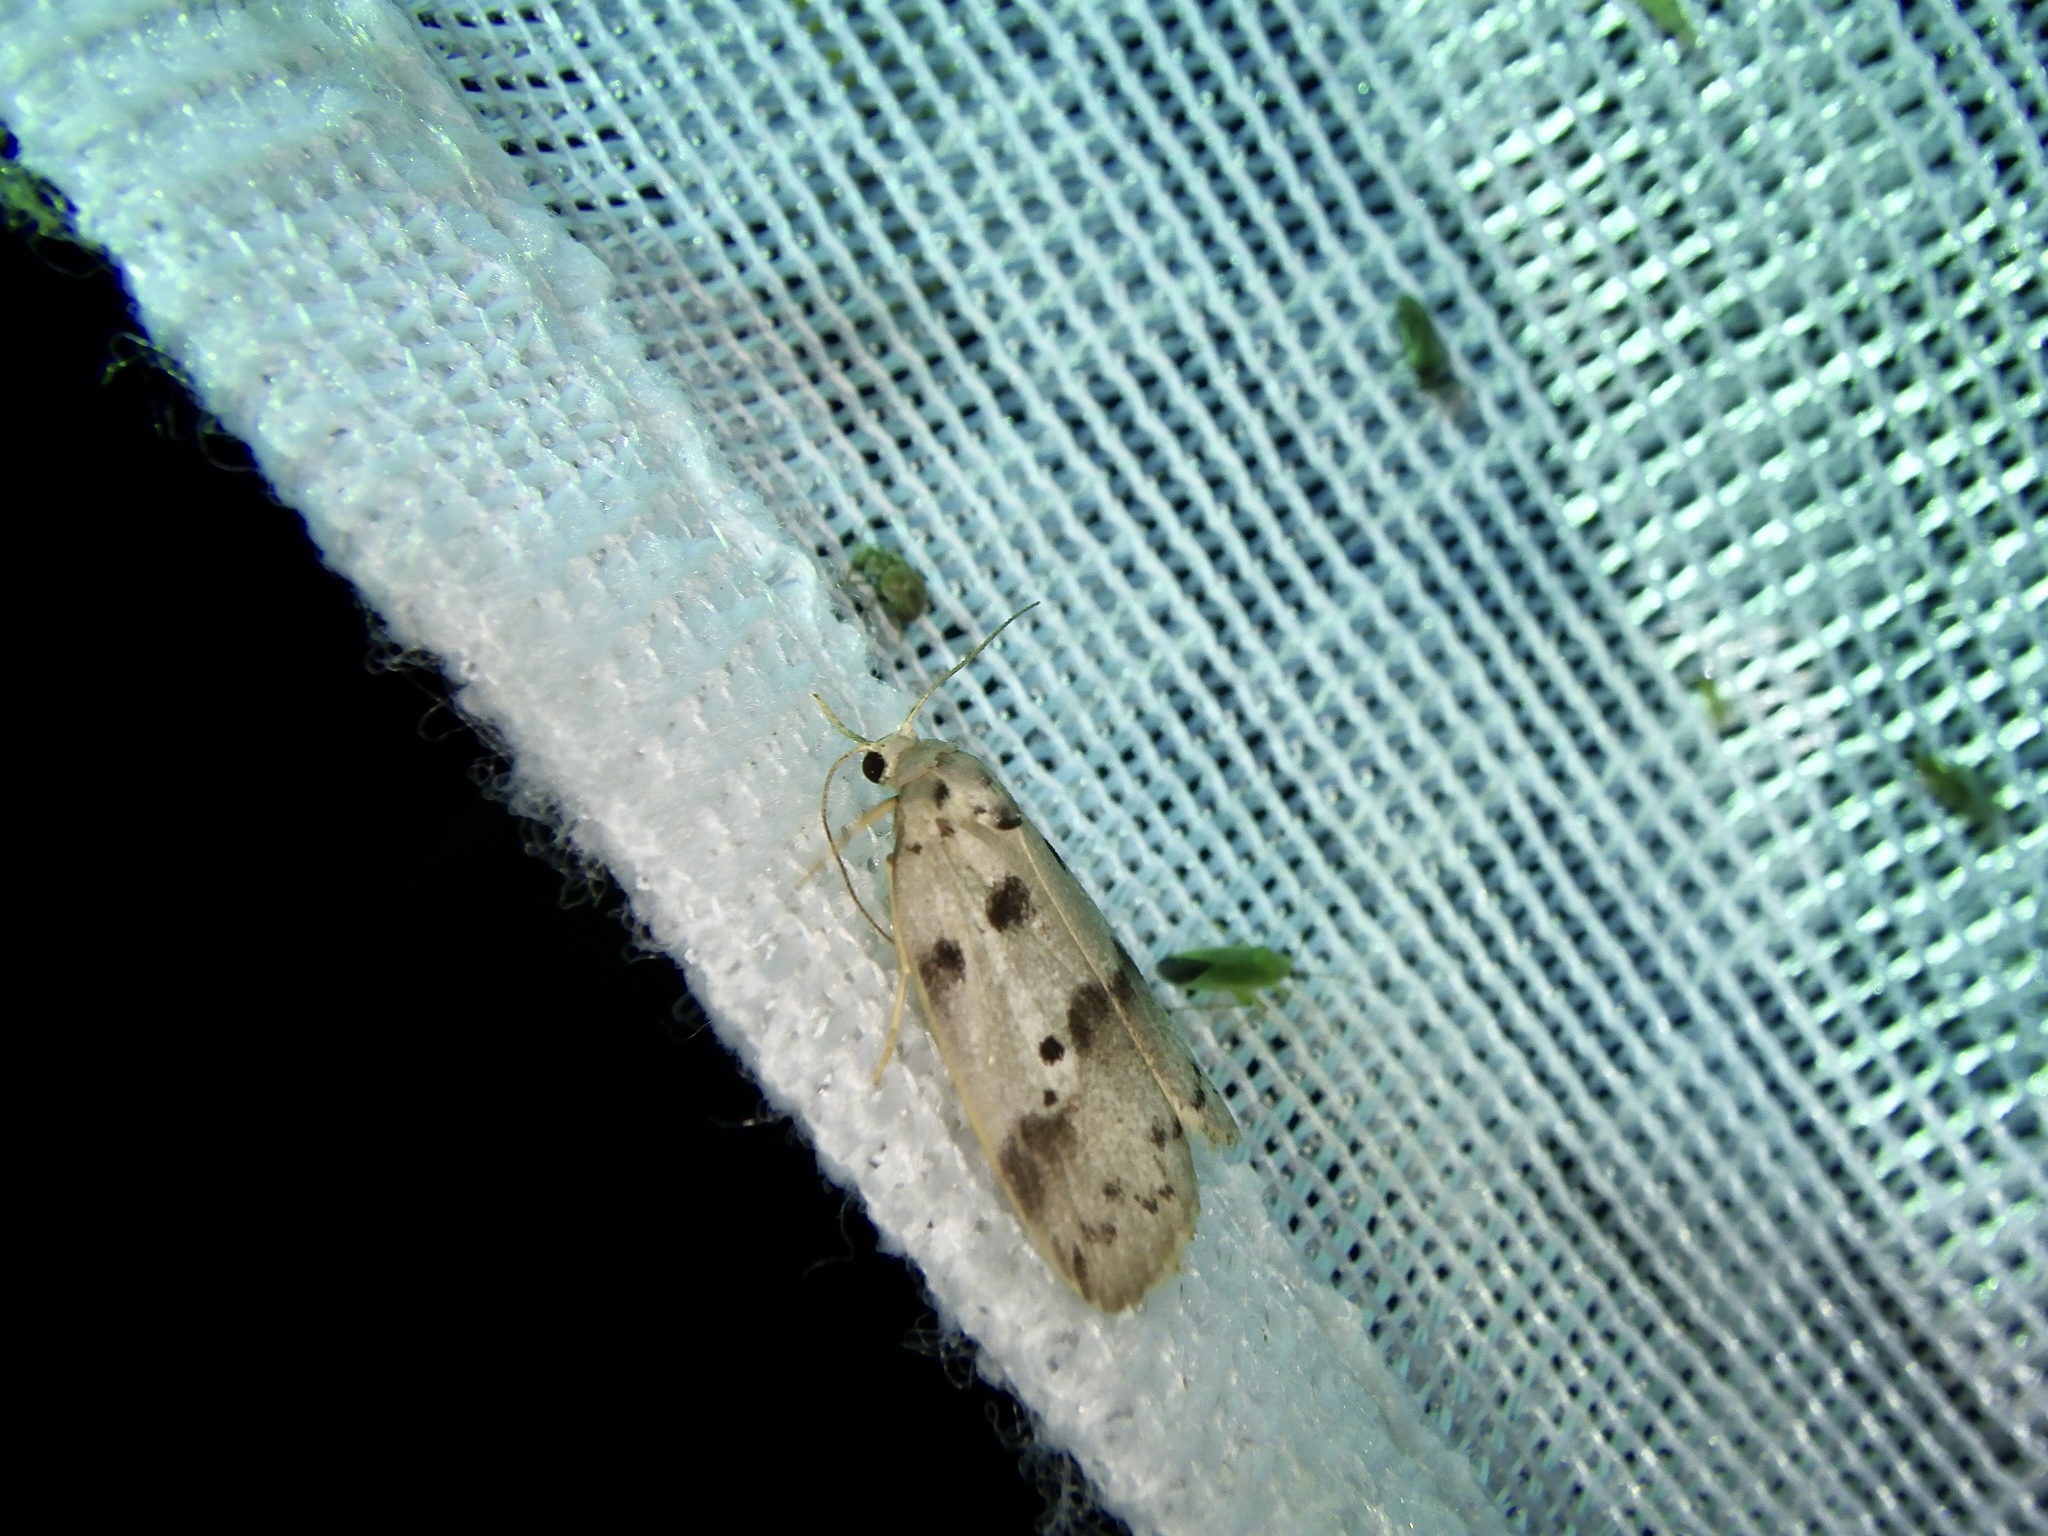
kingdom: Animalia
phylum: Arthropoda
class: Insecta
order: Lepidoptera
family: Erebidae
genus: Eugoa
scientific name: Eugoa grisea
